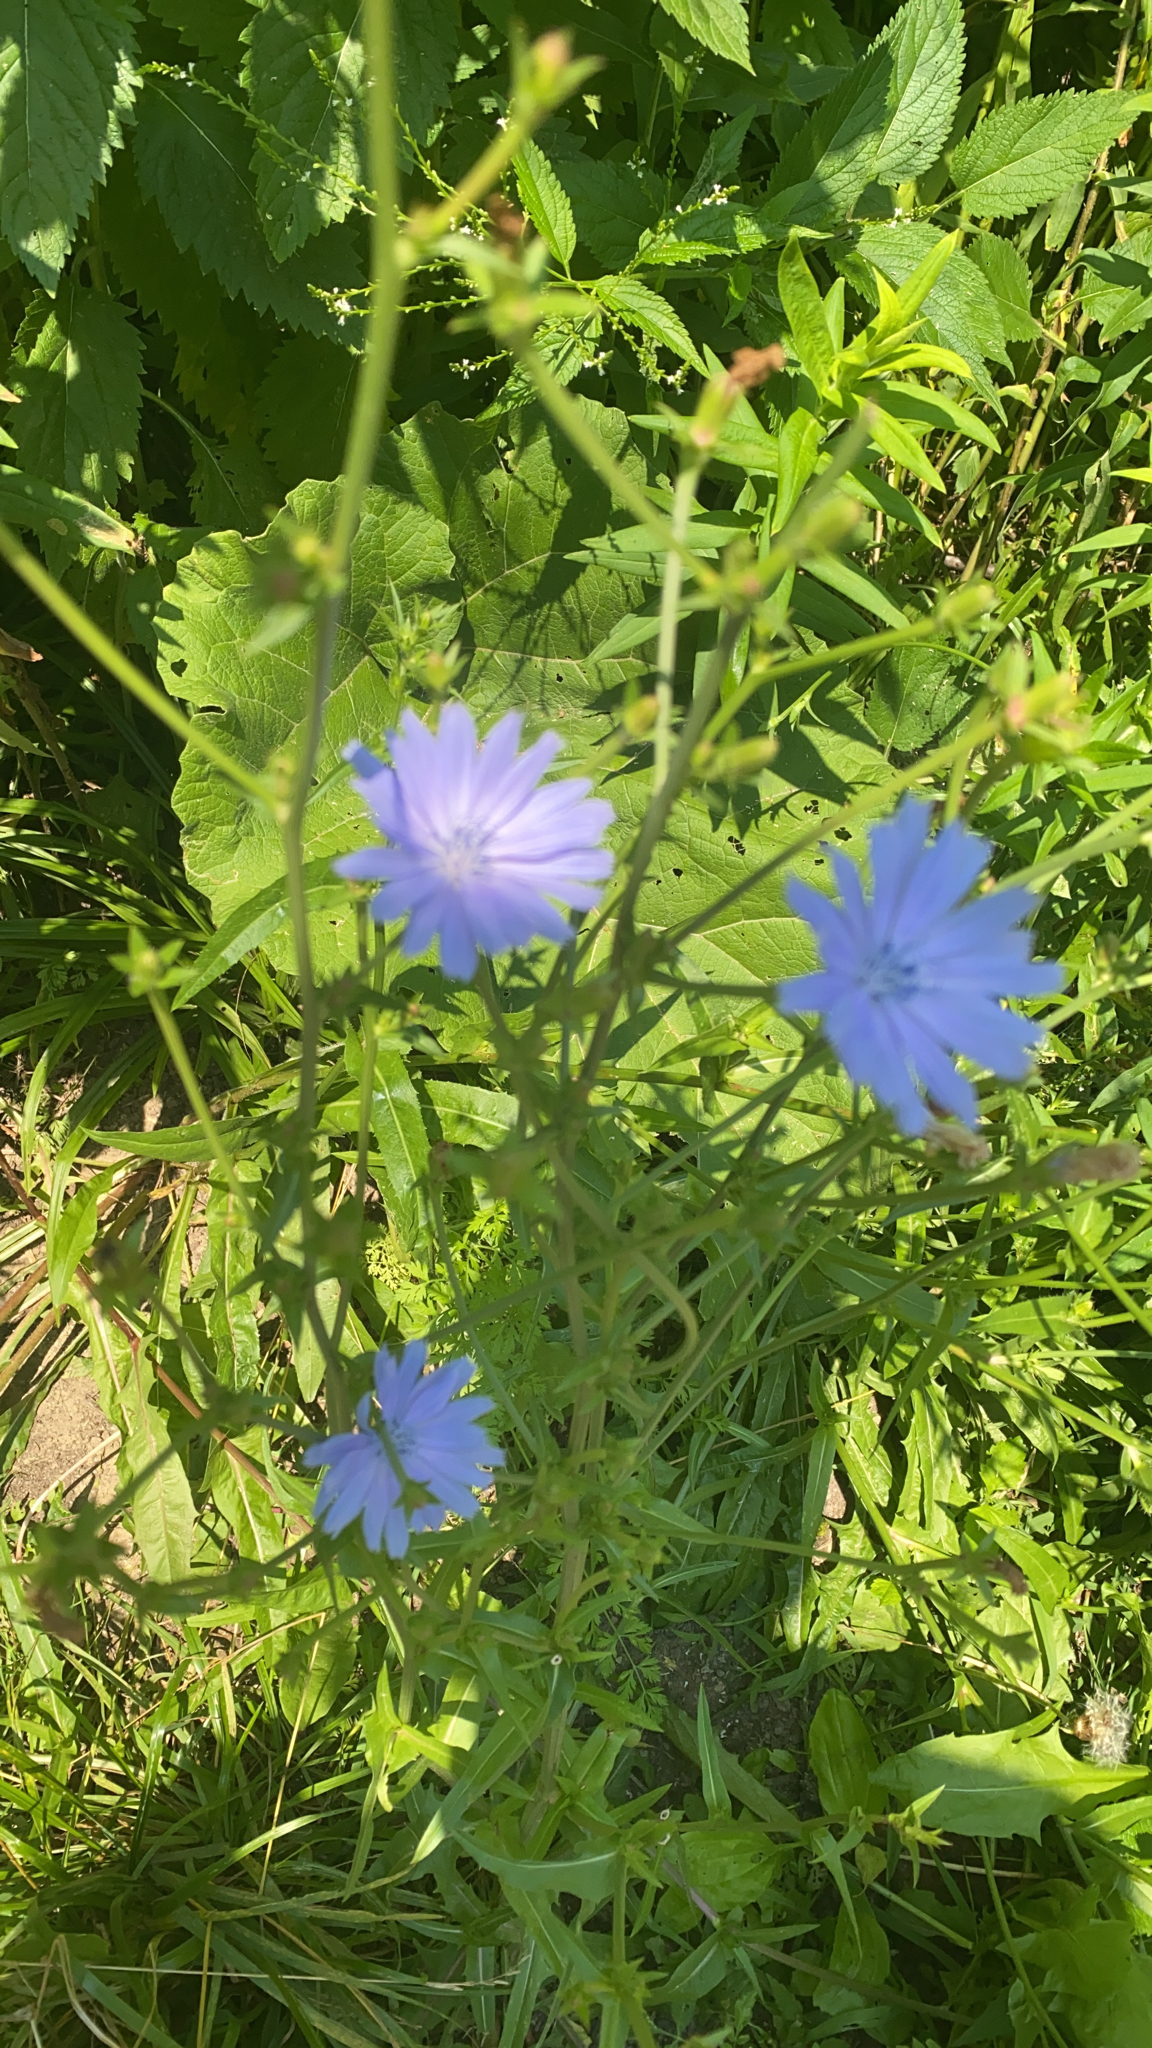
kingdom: Plantae
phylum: Tracheophyta
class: Magnoliopsida
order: Asterales
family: Asteraceae
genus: Cichorium
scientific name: Cichorium intybus
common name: Chicory
